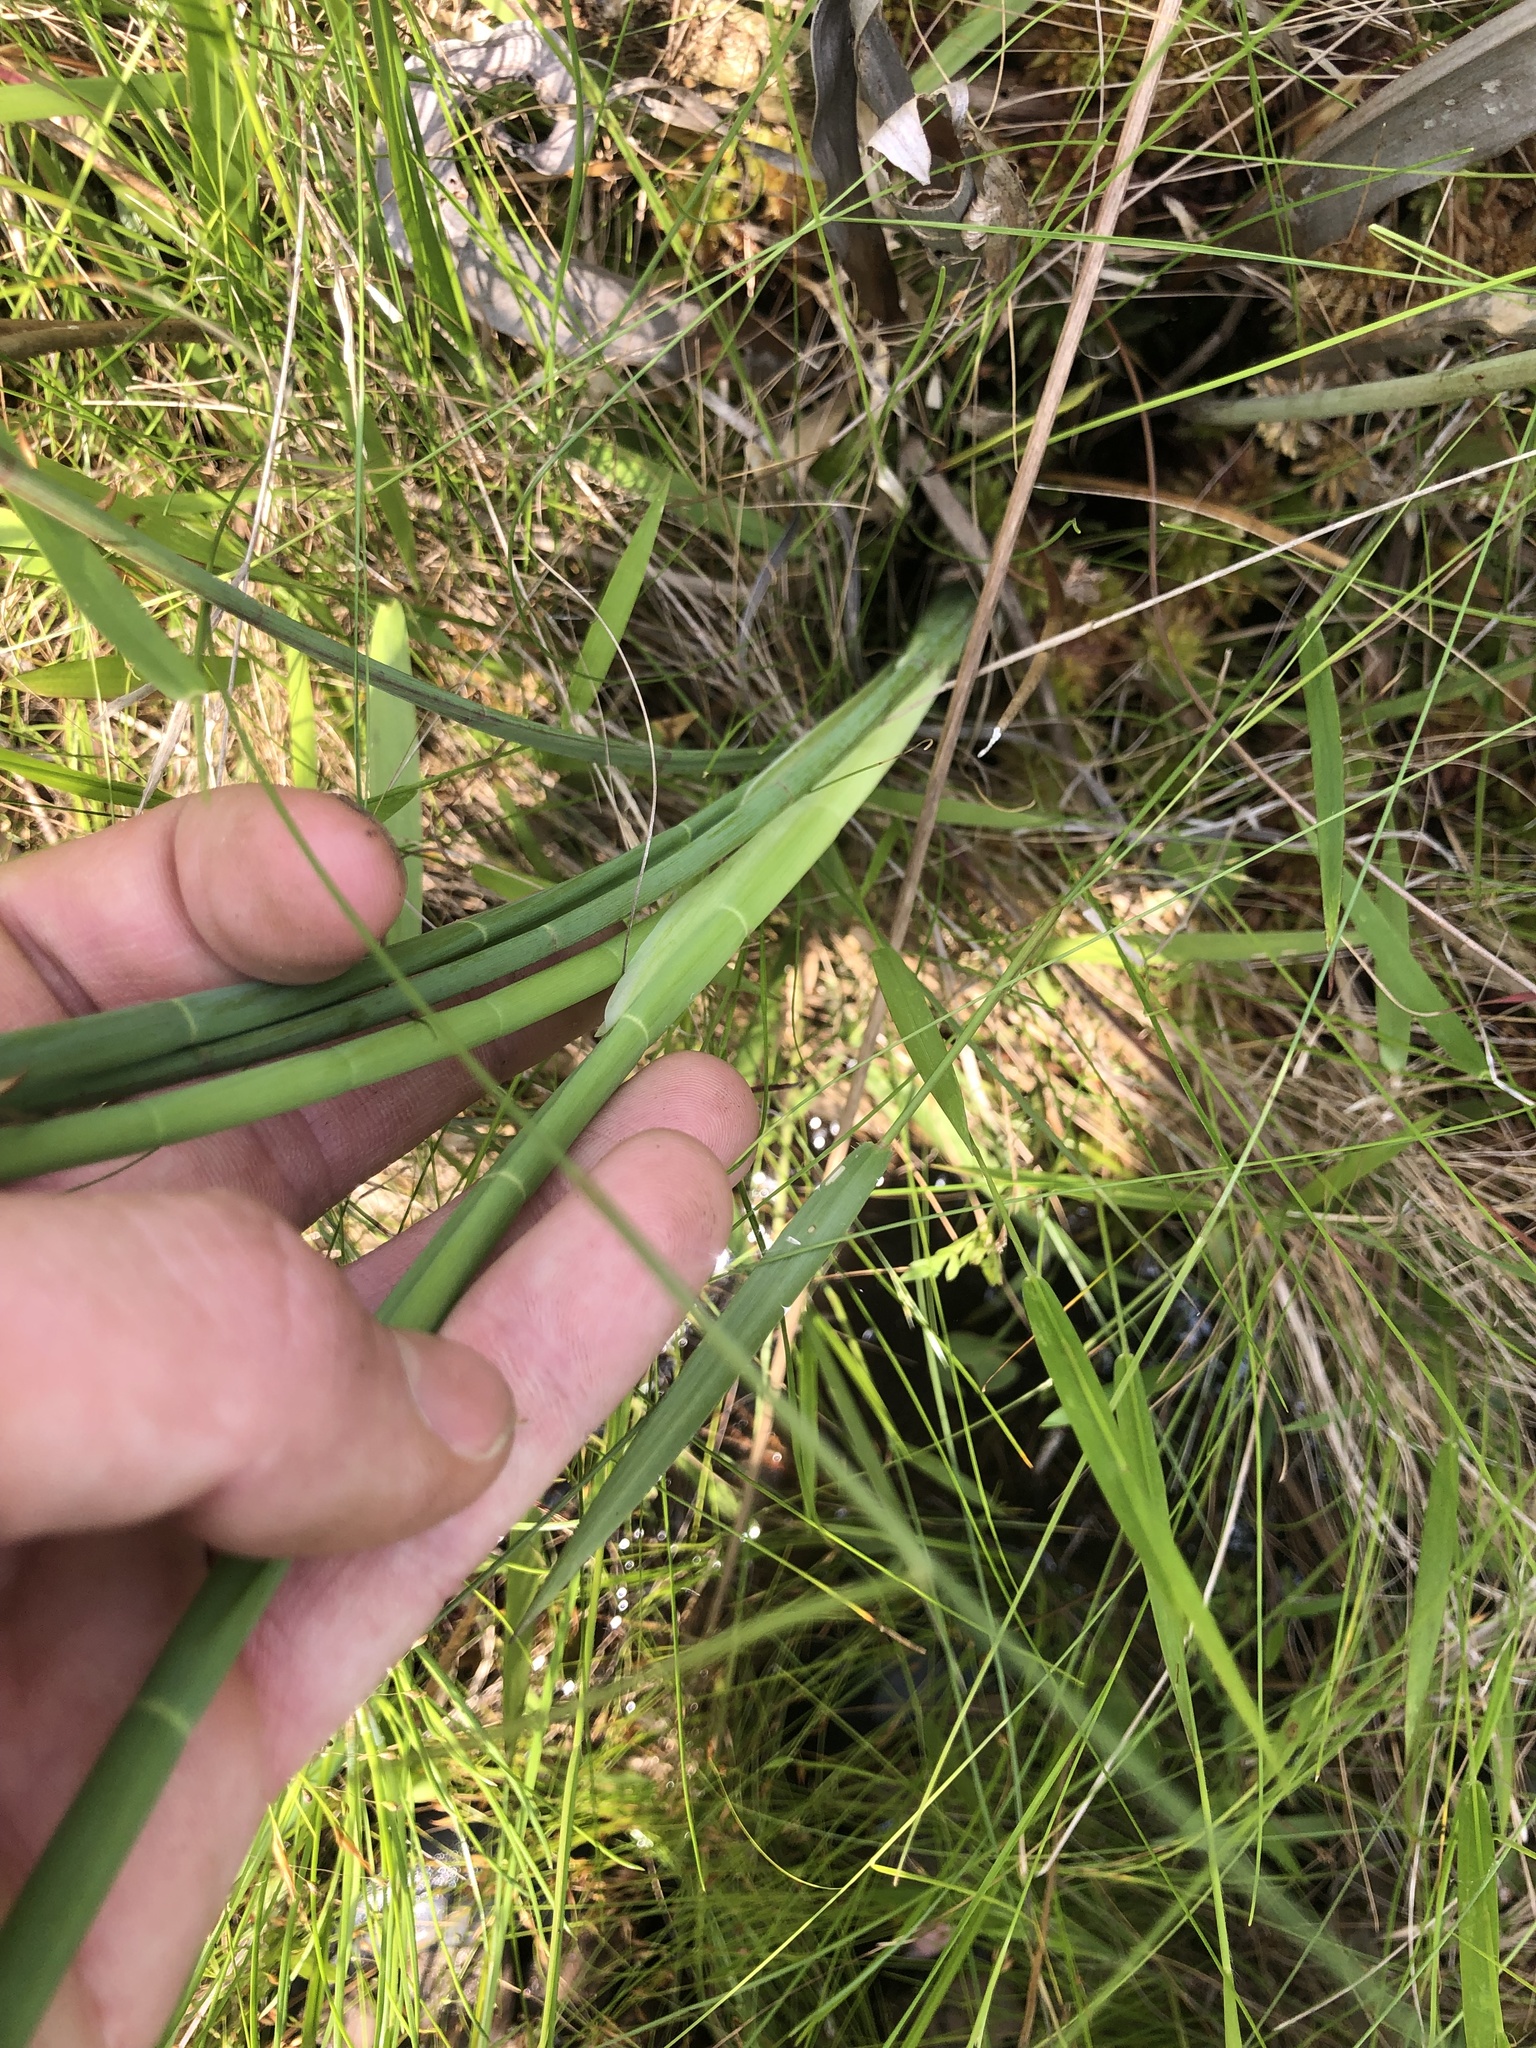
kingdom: Plantae
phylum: Tracheophyta
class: Magnoliopsida
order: Apiales
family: Apiaceae
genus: Tiedemannia
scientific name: Tiedemannia filiformis
